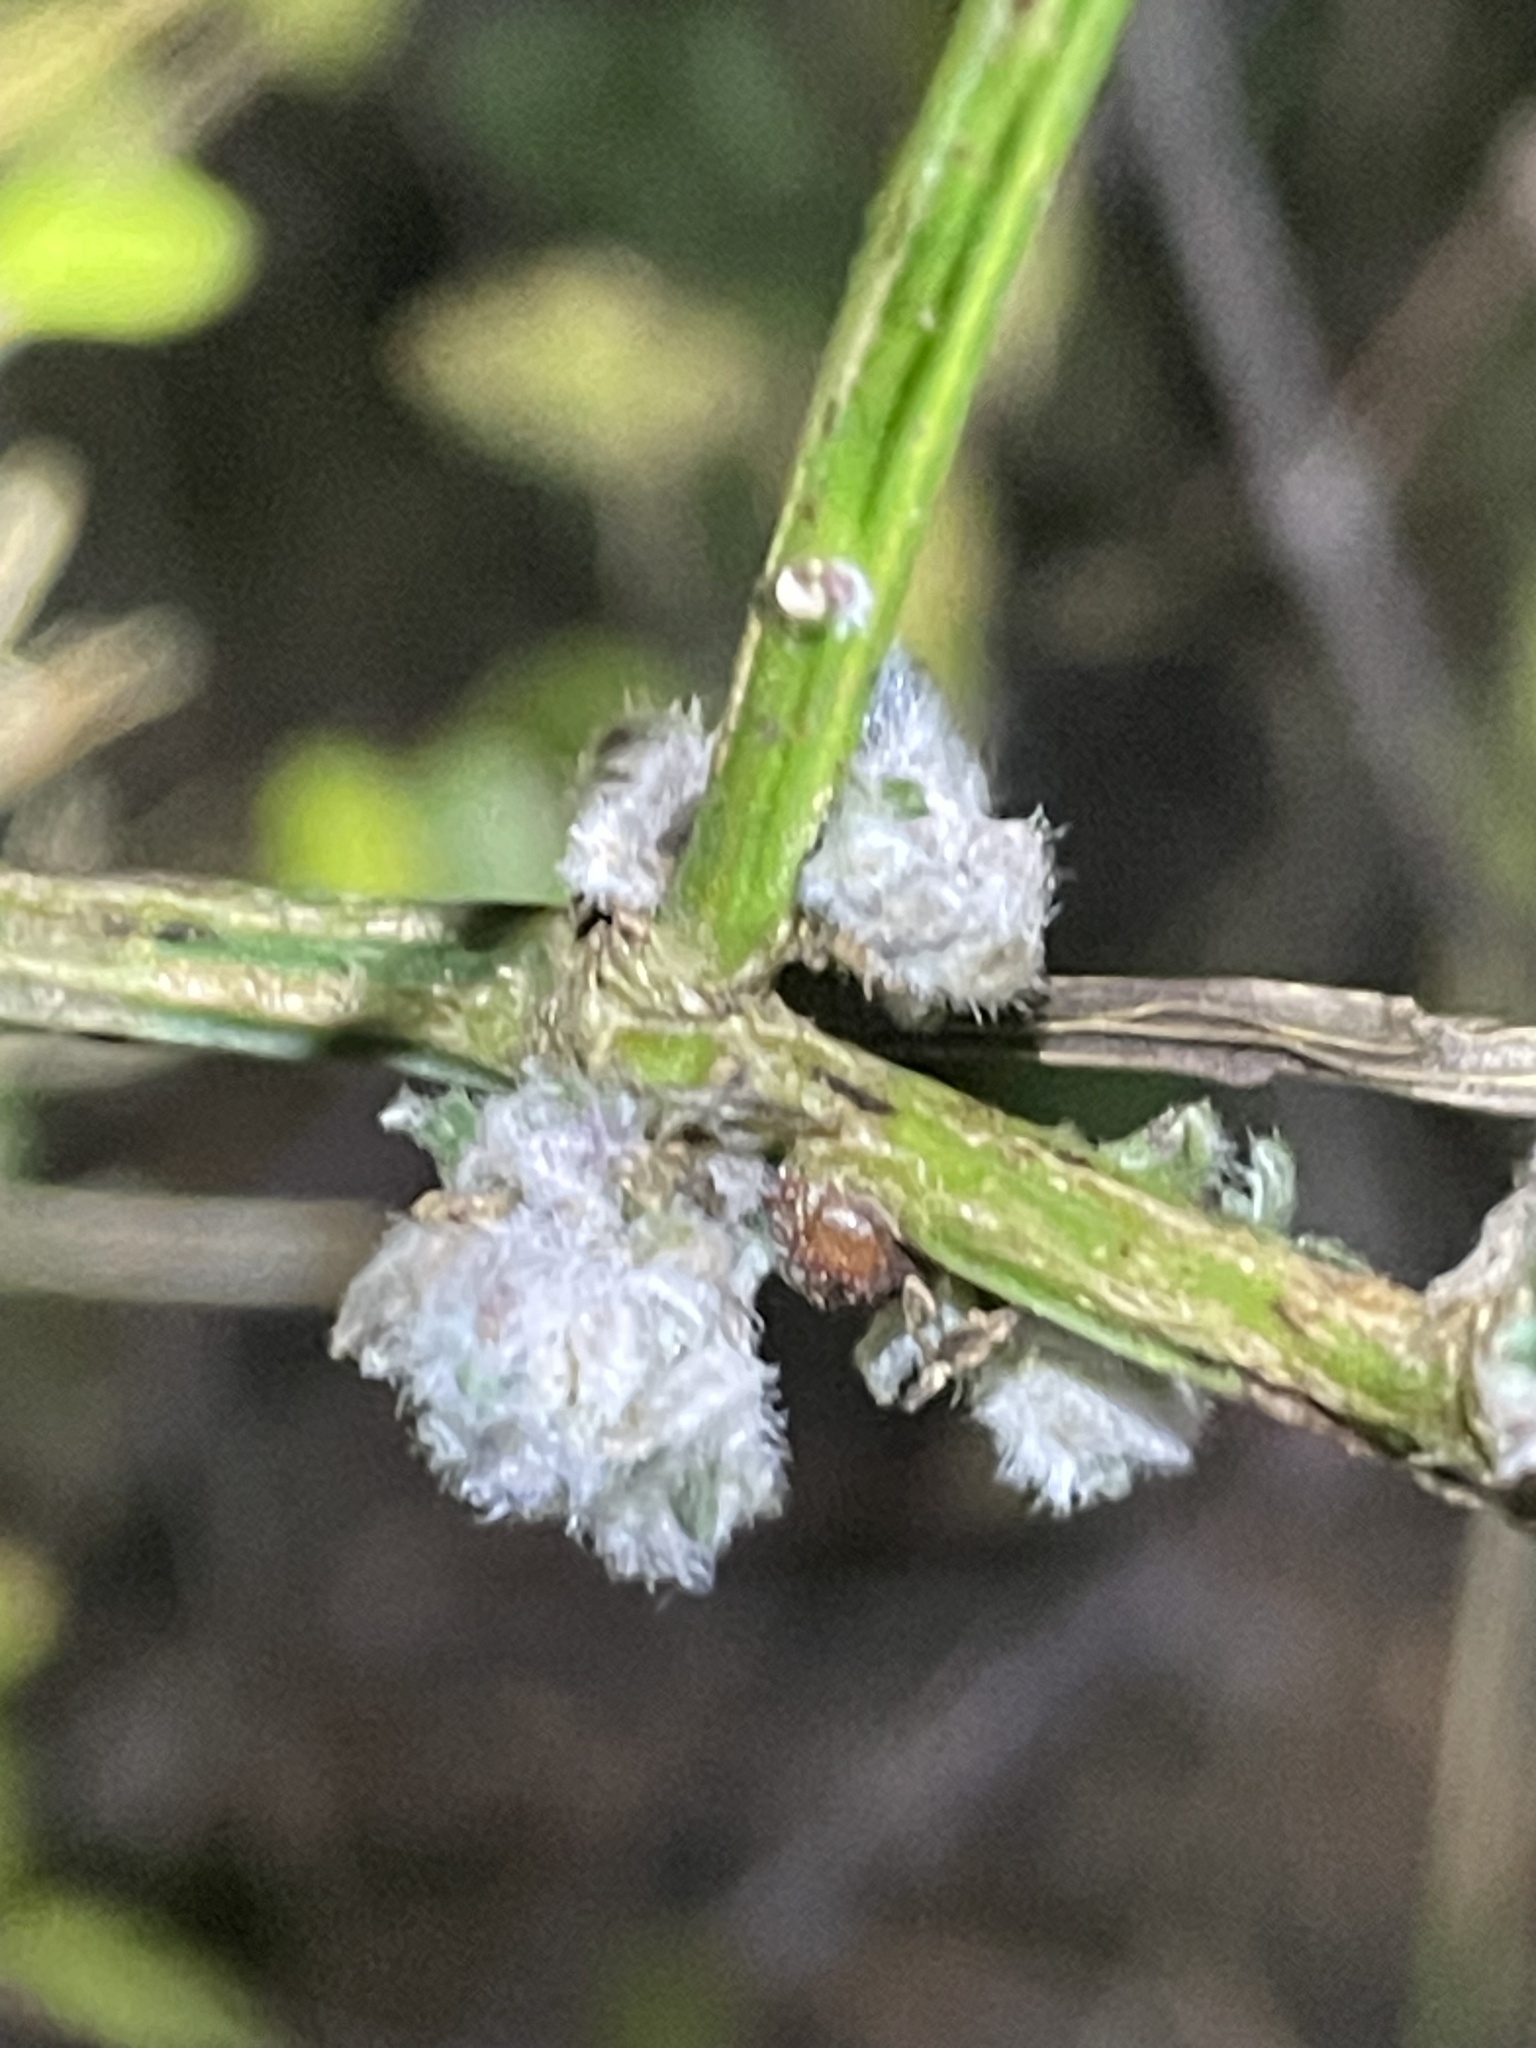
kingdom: Animalia
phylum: Arthropoda
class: Arachnida
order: Trombidiformes
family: Eriophyidae
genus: Aceria
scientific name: Aceria genistae
